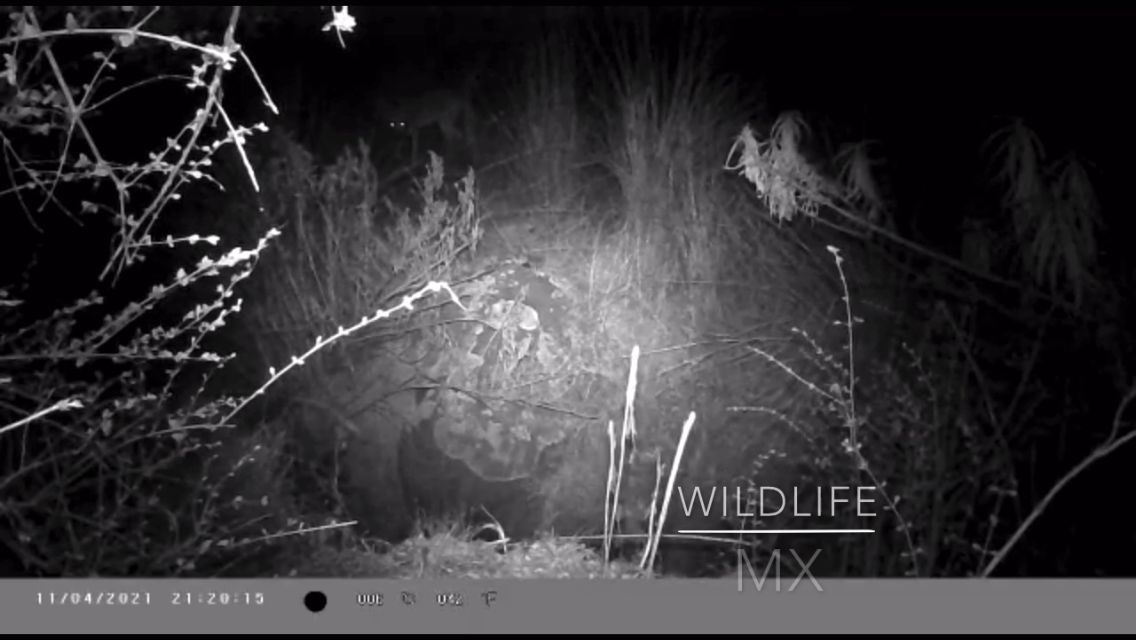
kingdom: Animalia
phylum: Chordata
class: Mammalia
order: Carnivora
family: Canidae
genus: Canis
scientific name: Canis latrans
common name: Coyote
